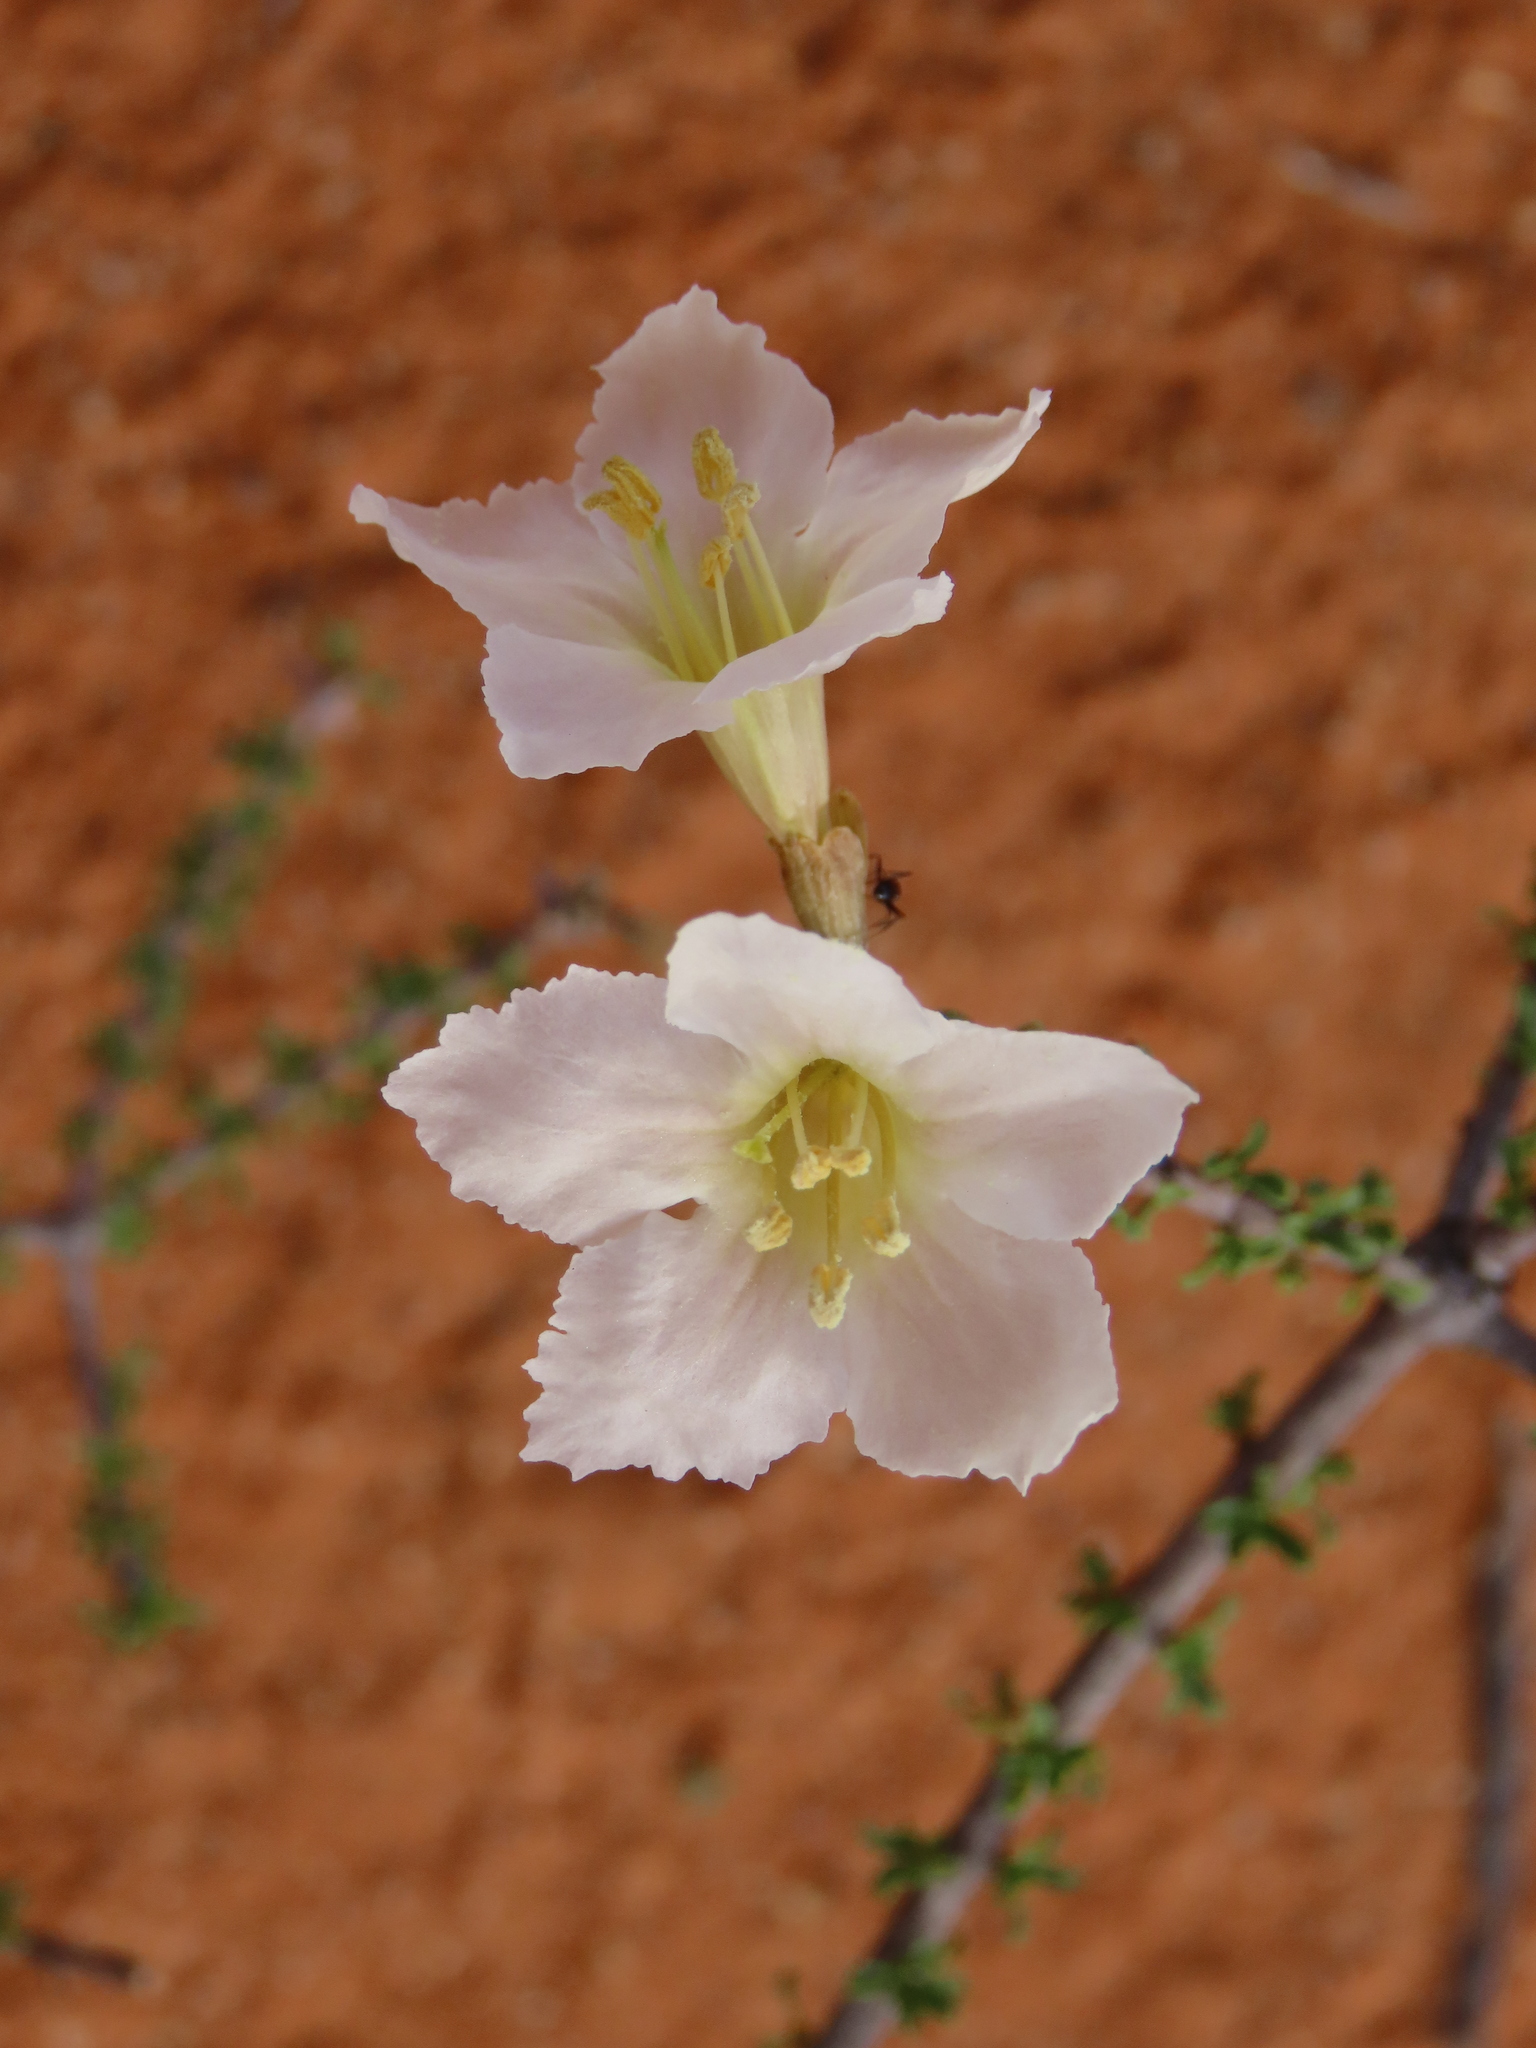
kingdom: Plantae
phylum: Tracheophyta
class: Magnoliopsida
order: Lamiales
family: Bignoniaceae
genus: Rhigozum
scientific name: Rhigozum trichotomum
